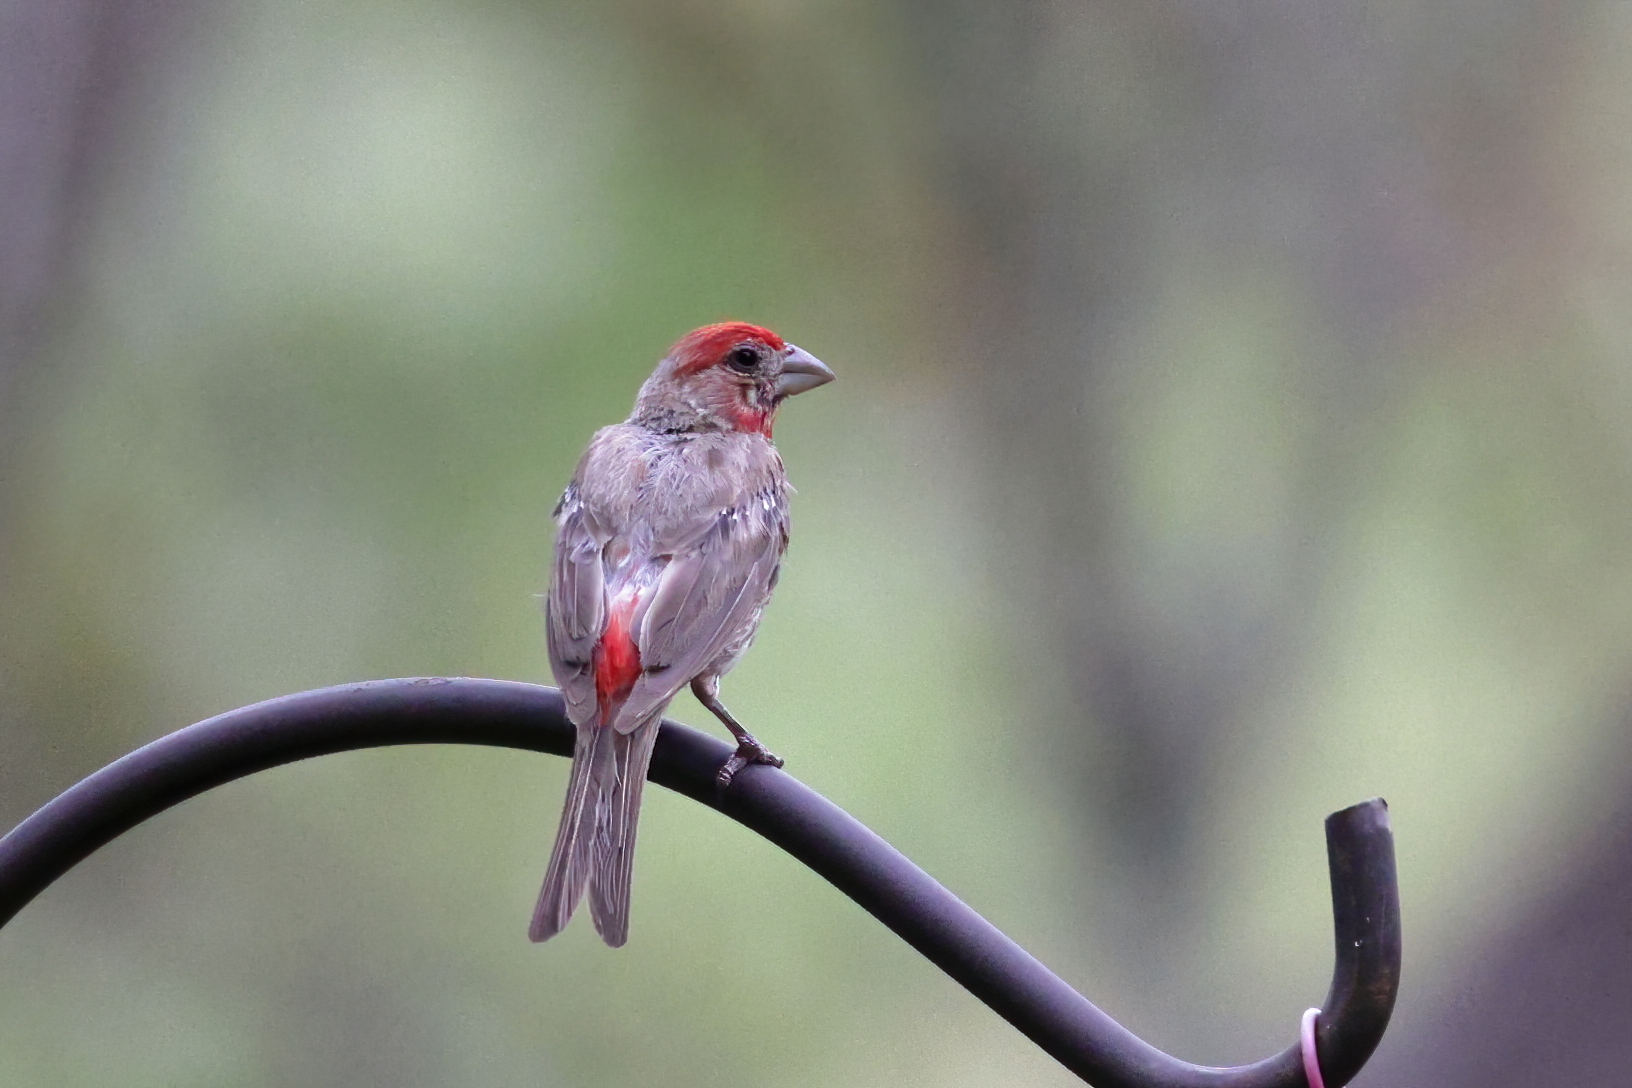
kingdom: Animalia
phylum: Chordata
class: Aves
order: Passeriformes
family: Fringillidae
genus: Haemorhous
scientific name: Haemorhous mexicanus
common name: House finch
